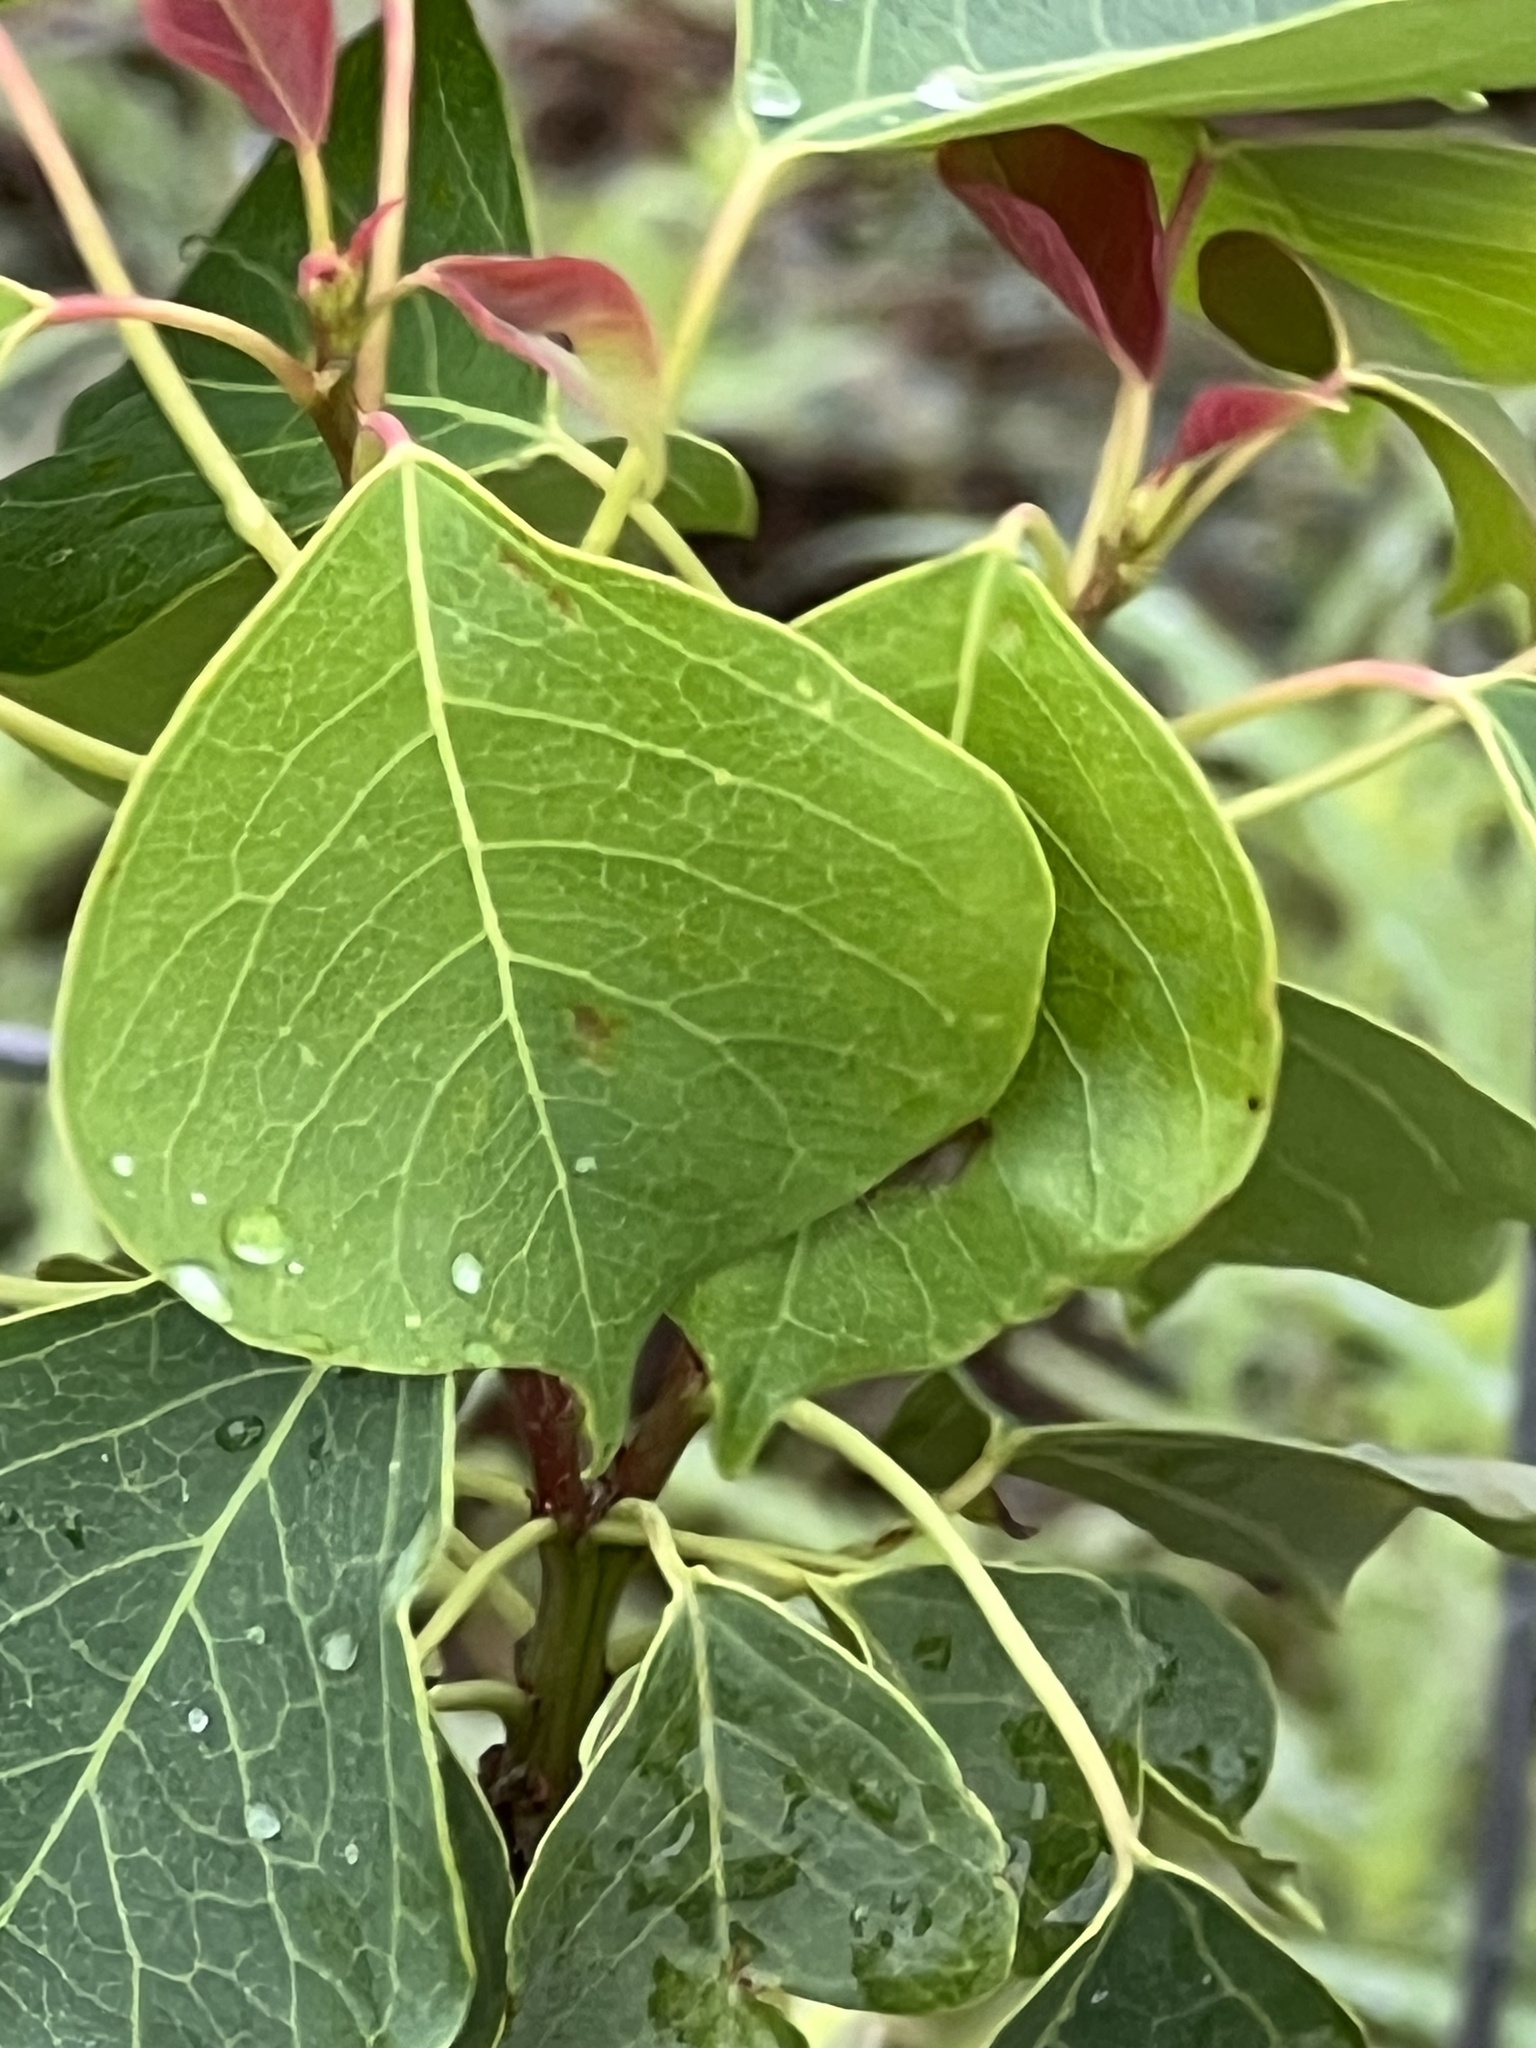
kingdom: Plantae
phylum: Tracheophyta
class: Magnoliopsida
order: Malpighiales
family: Euphorbiaceae
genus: Triadica
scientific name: Triadica sebifera
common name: Chinese tallow
